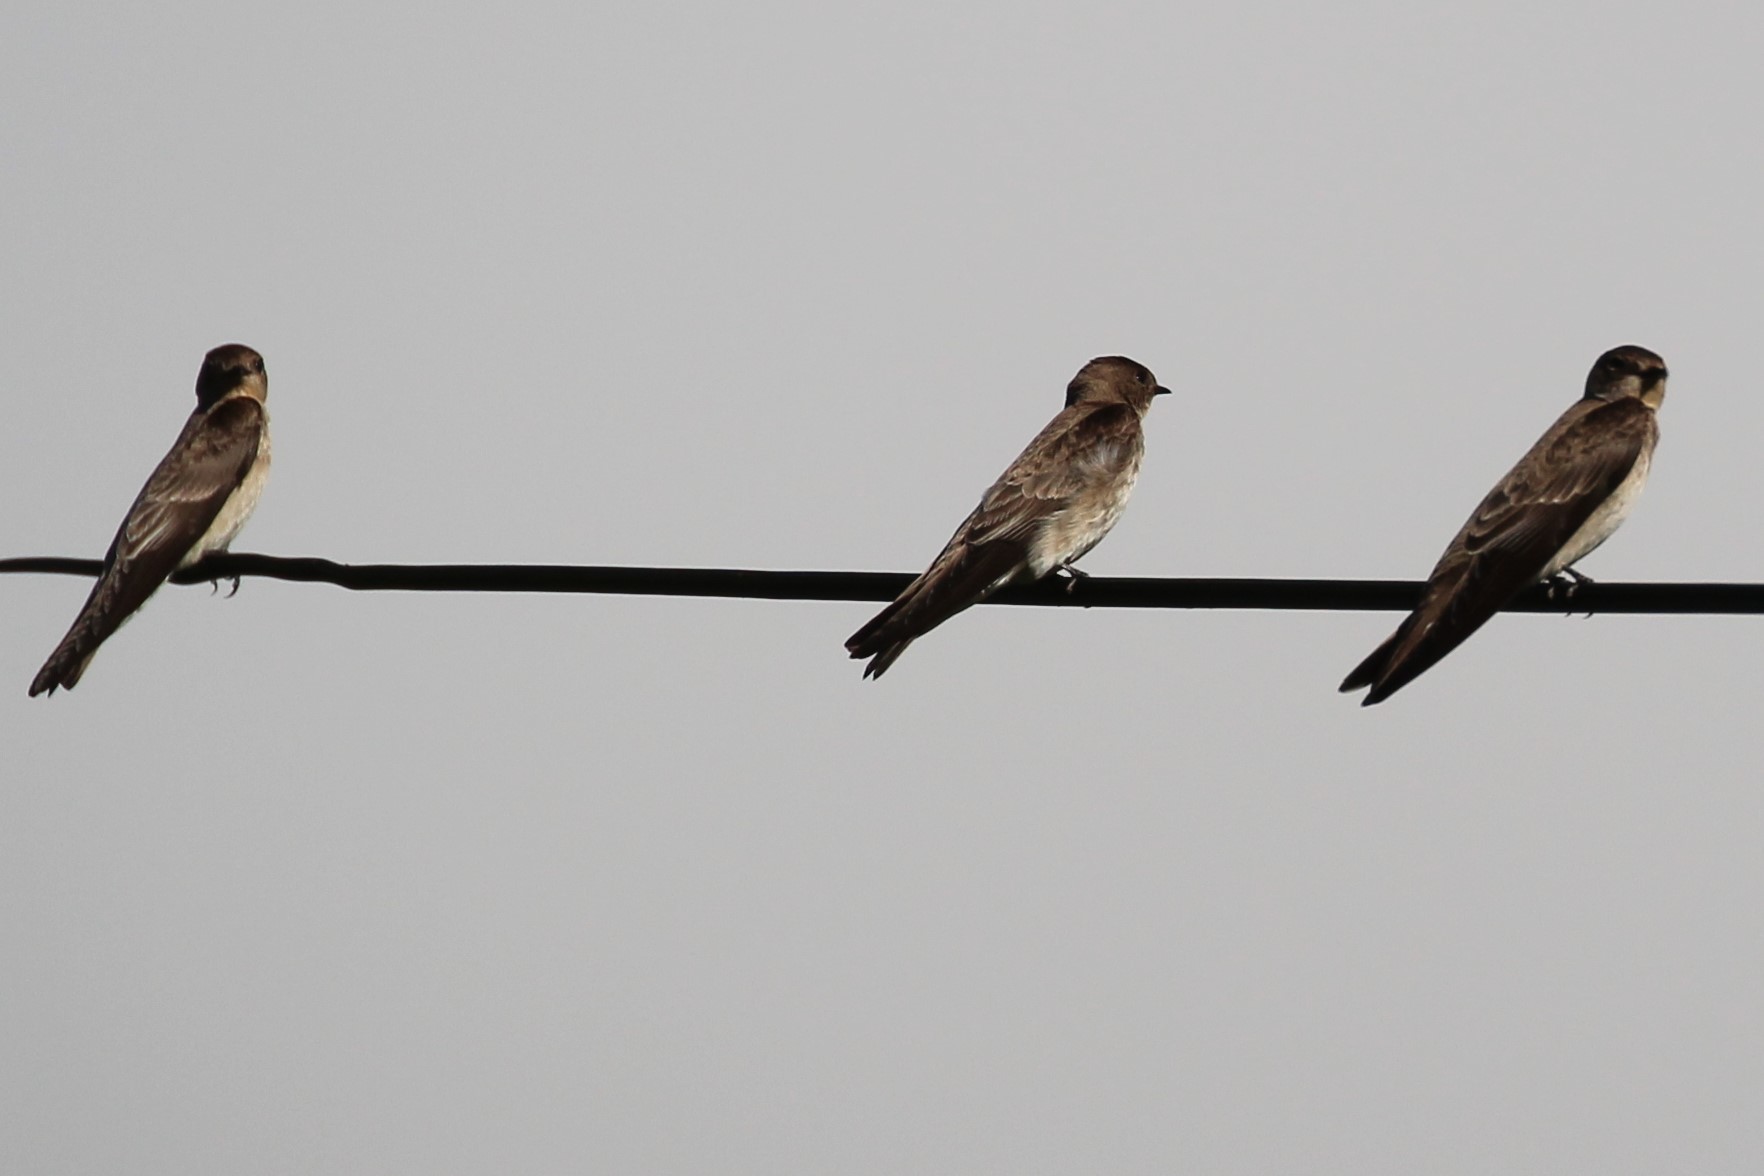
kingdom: Animalia
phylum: Chordata
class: Aves
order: Passeriformes
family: Hirundinidae
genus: Stelgidopteryx
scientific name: Stelgidopteryx serripennis
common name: Northern rough-winged swallow
